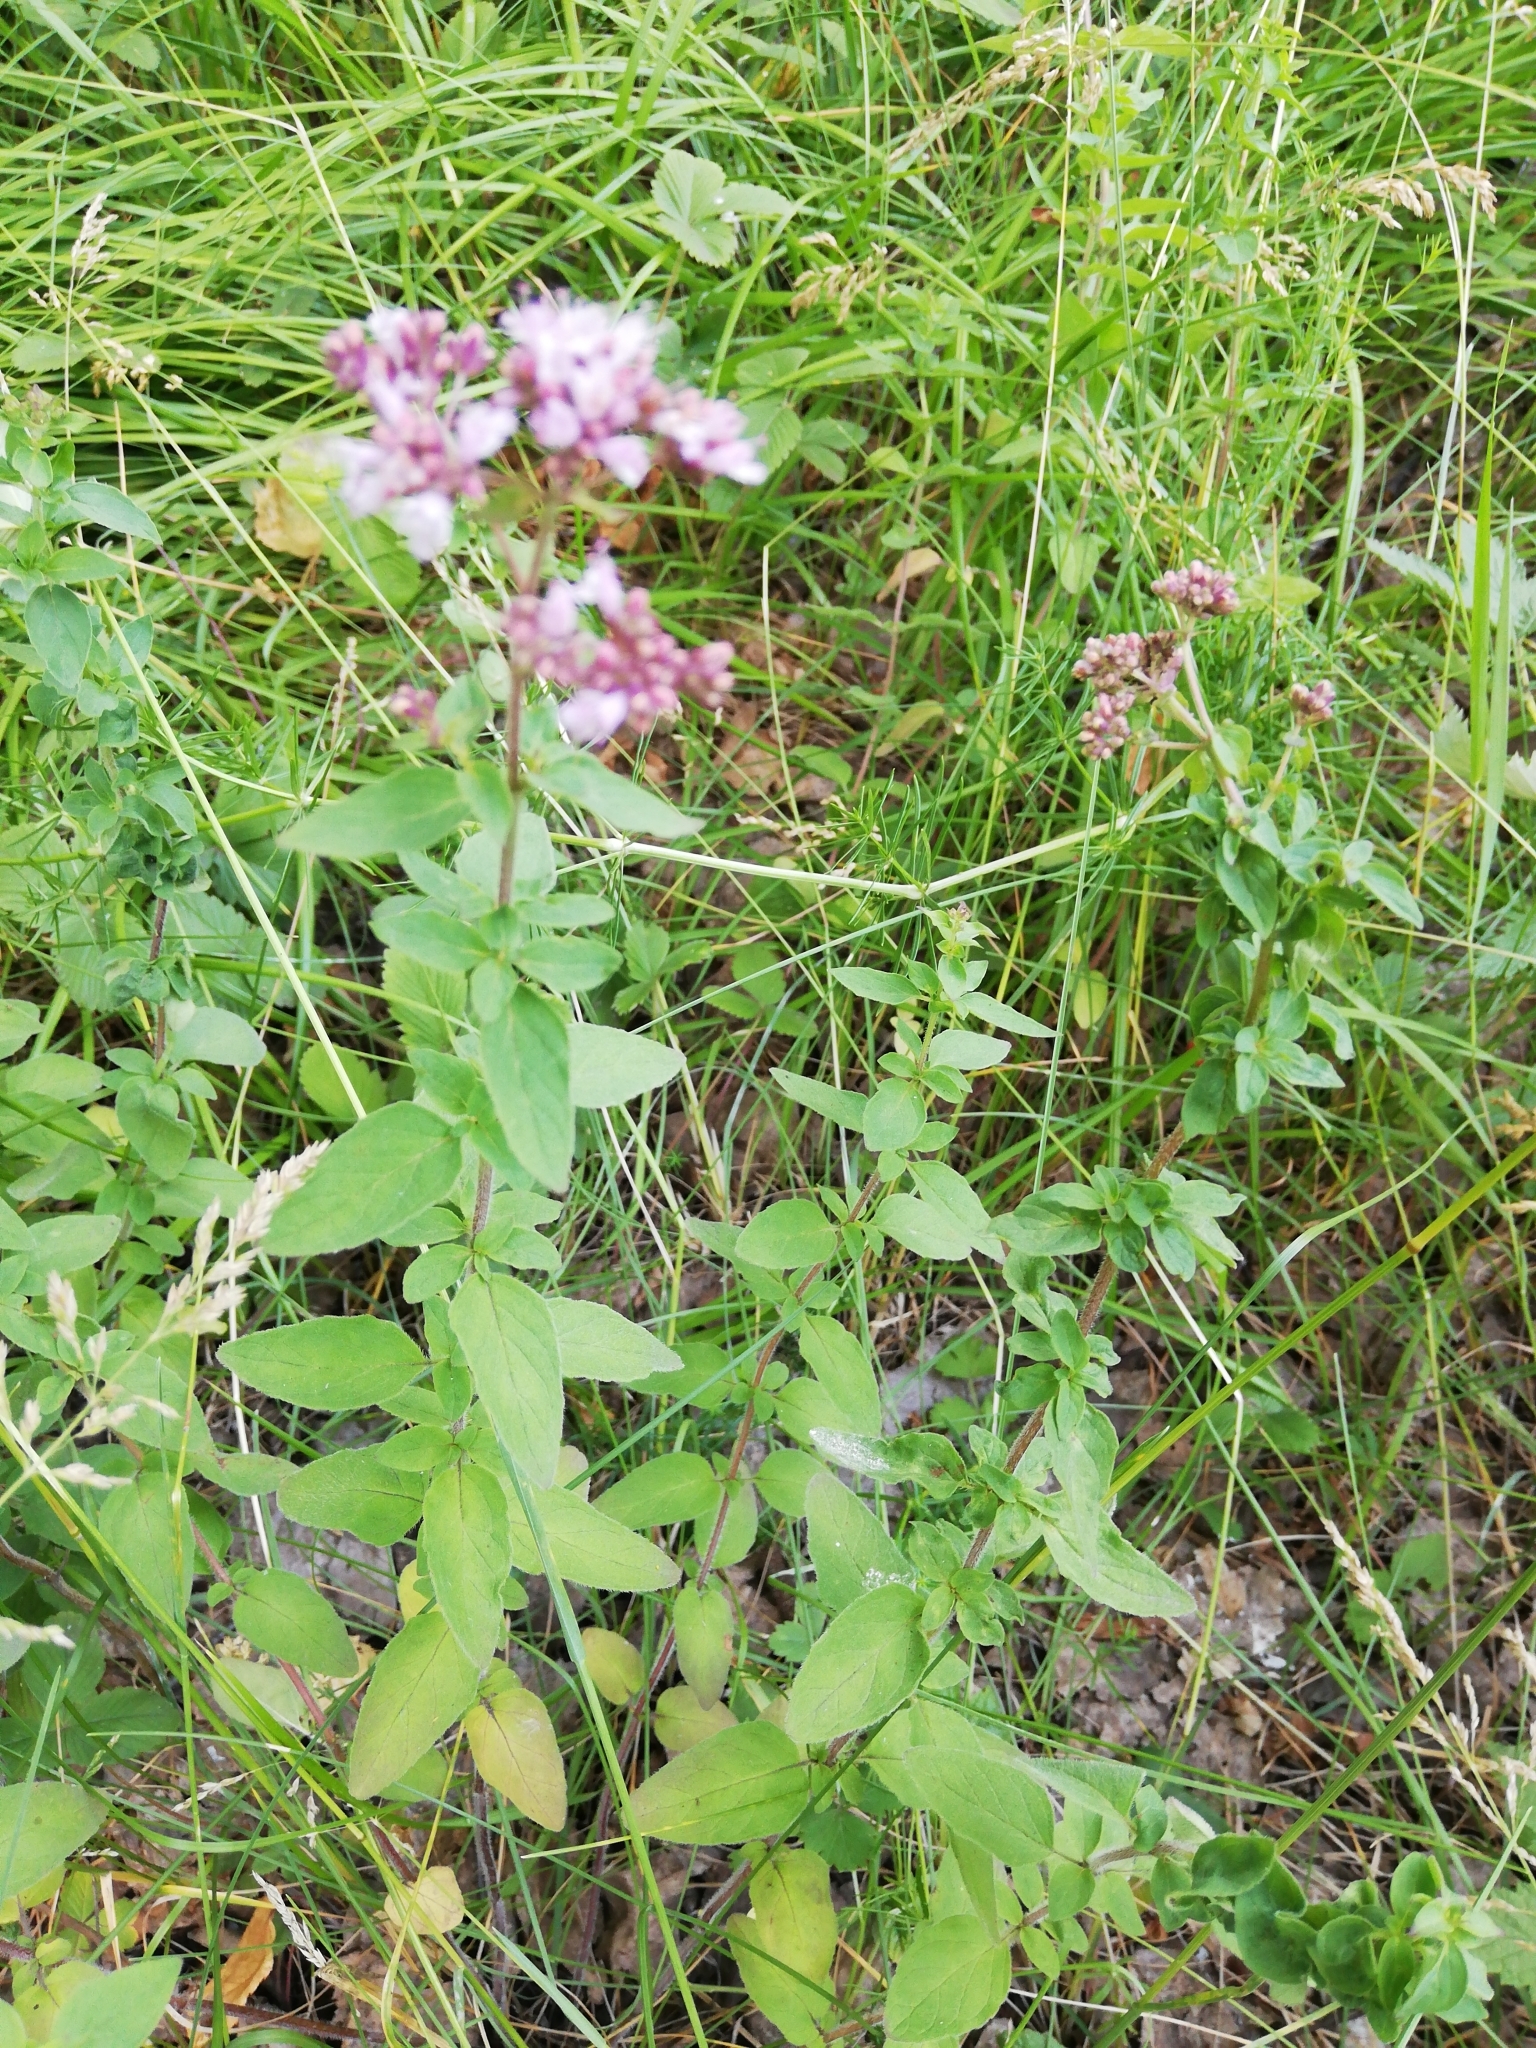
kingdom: Plantae
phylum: Tracheophyta
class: Magnoliopsida
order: Lamiales
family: Lamiaceae
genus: Origanum
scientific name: Origanum vulgare
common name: Wild marjoram
